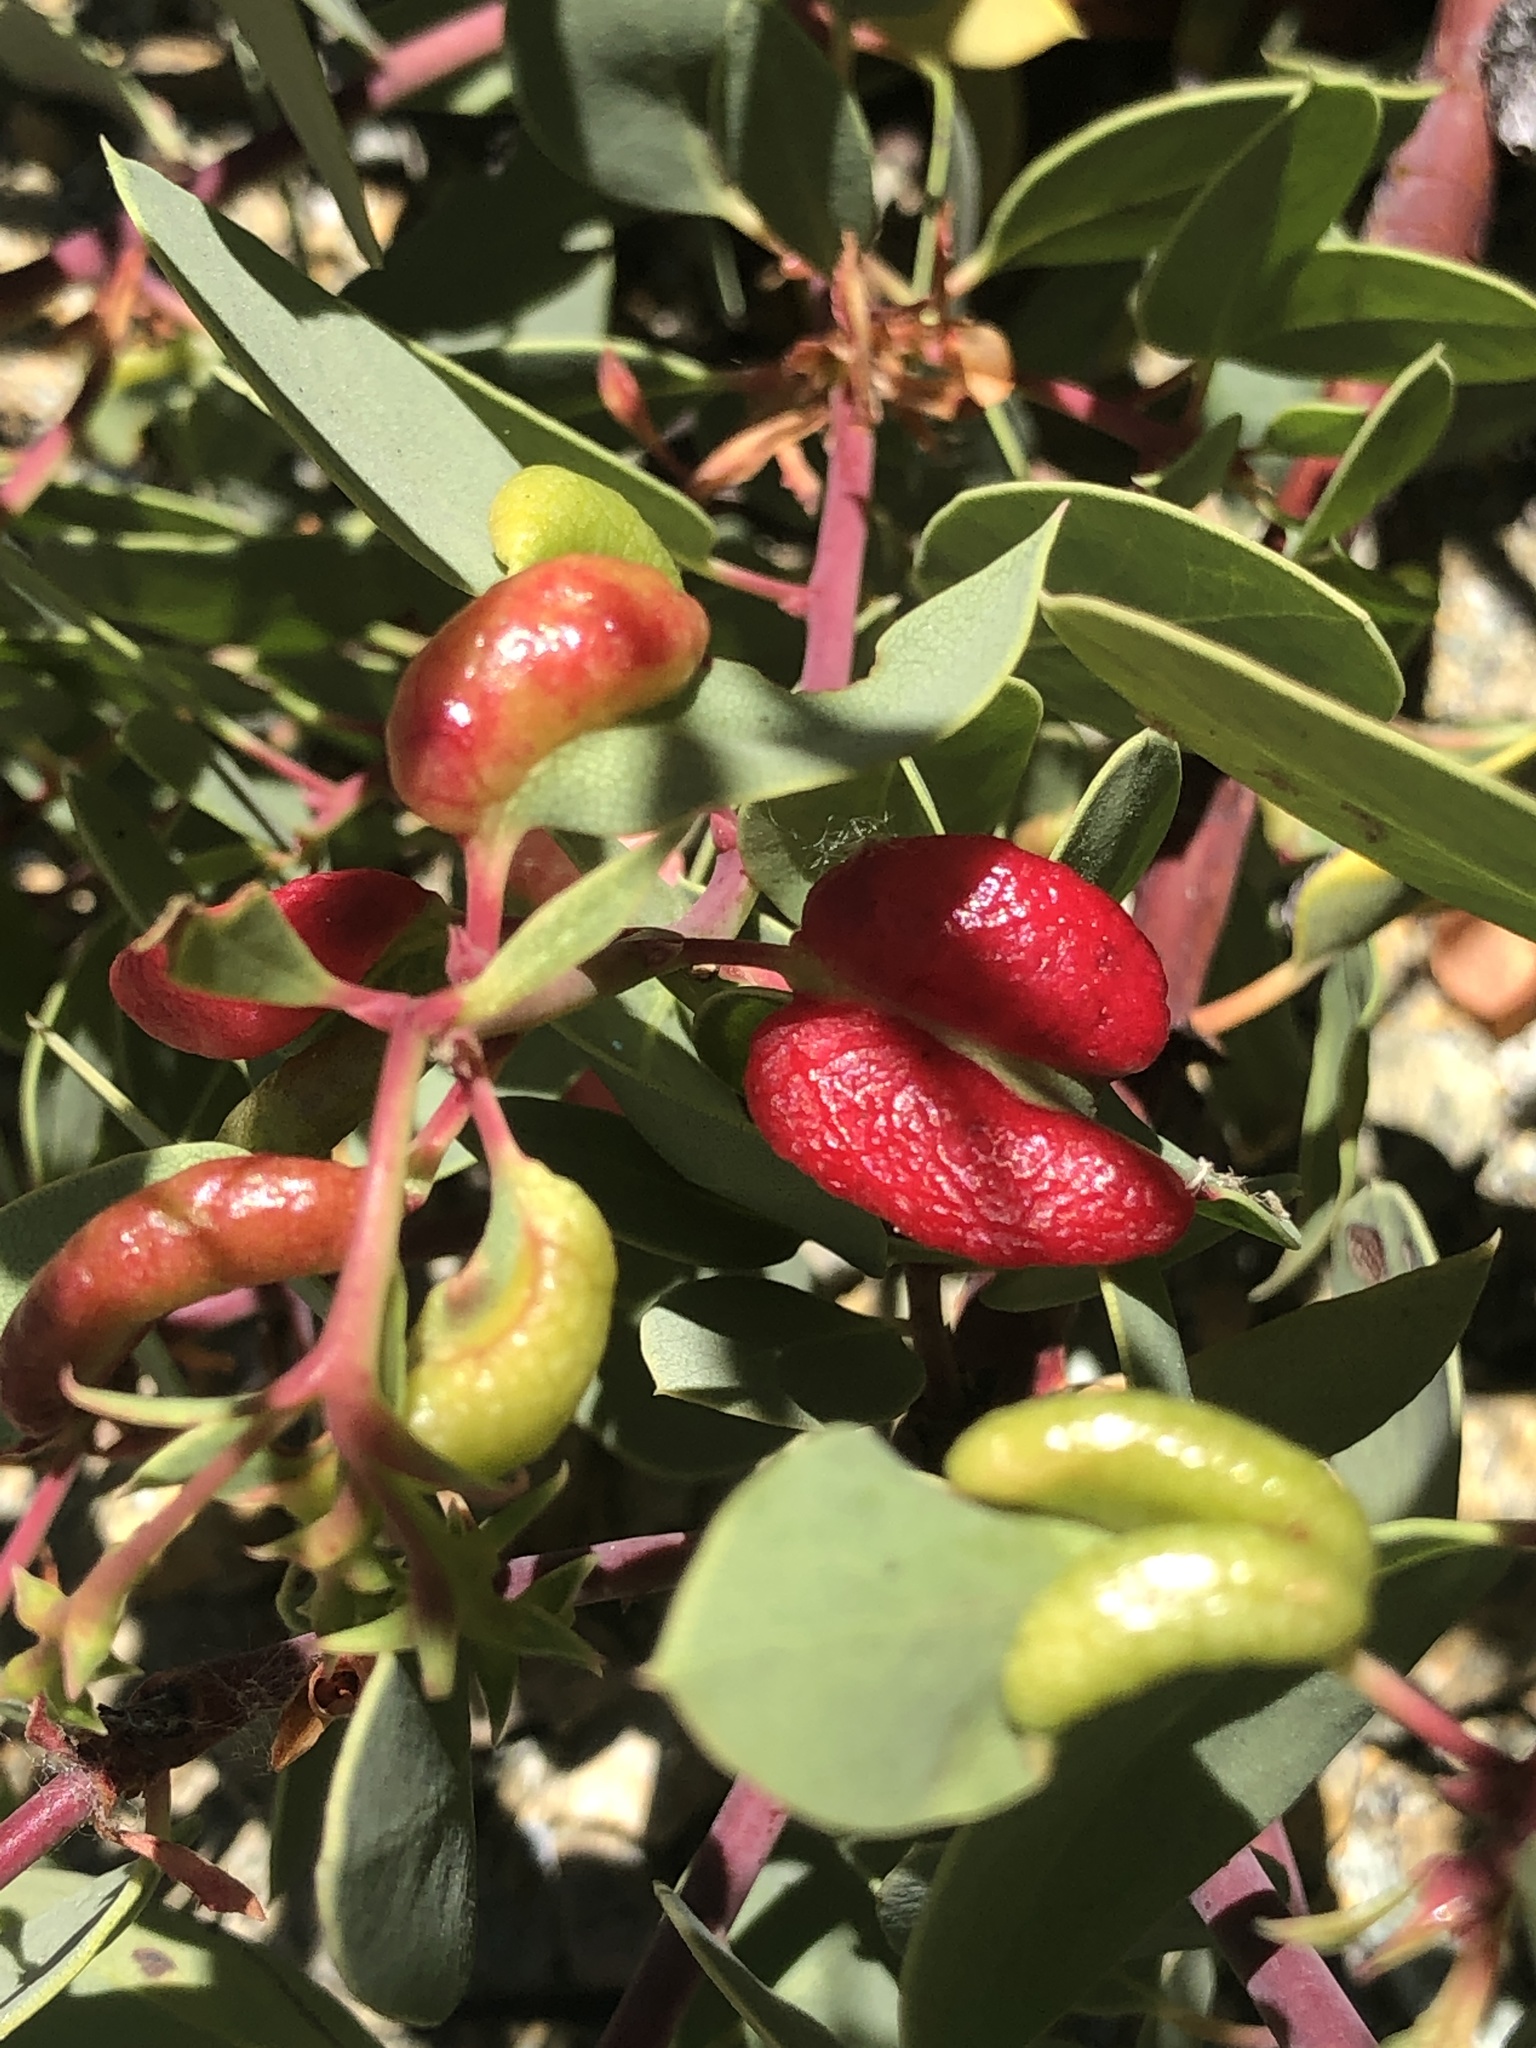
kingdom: Animalia
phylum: Arthropoda
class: Insecta
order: Hemiptera
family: Aphididae
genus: Tamalia
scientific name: Tamalia
